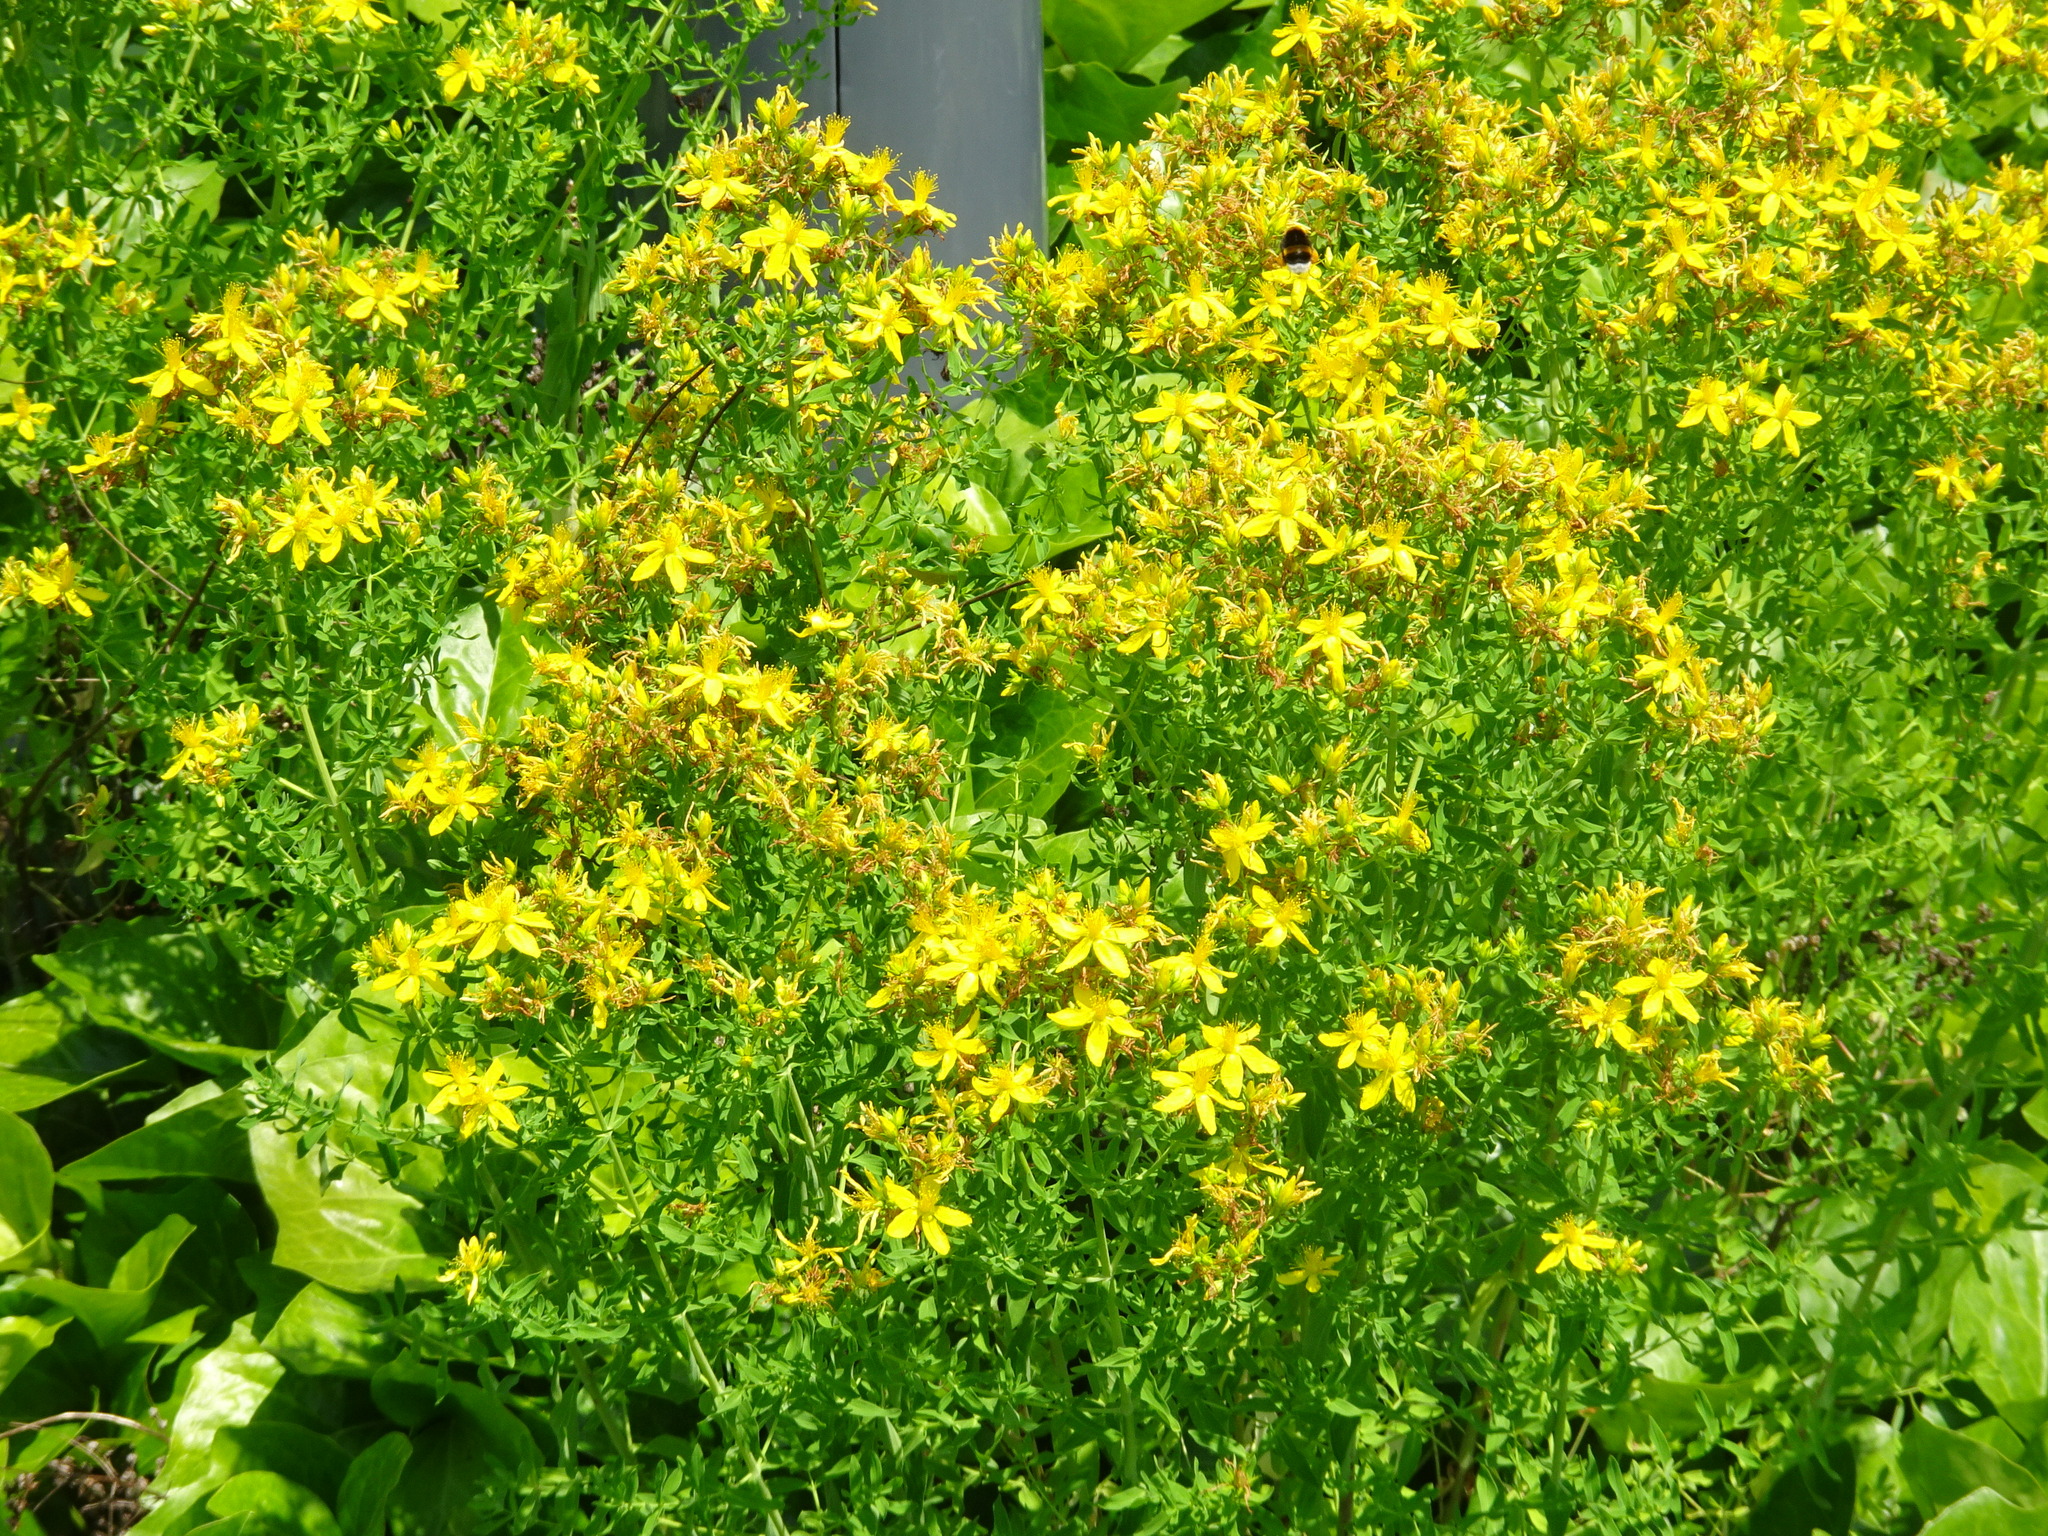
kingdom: Plantae
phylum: Tracheophyta
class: Magnoliopsida
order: Malpighiales
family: Hypericaceae
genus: Hypericum
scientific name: Hypericum perforatum
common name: Common st. johnswort
